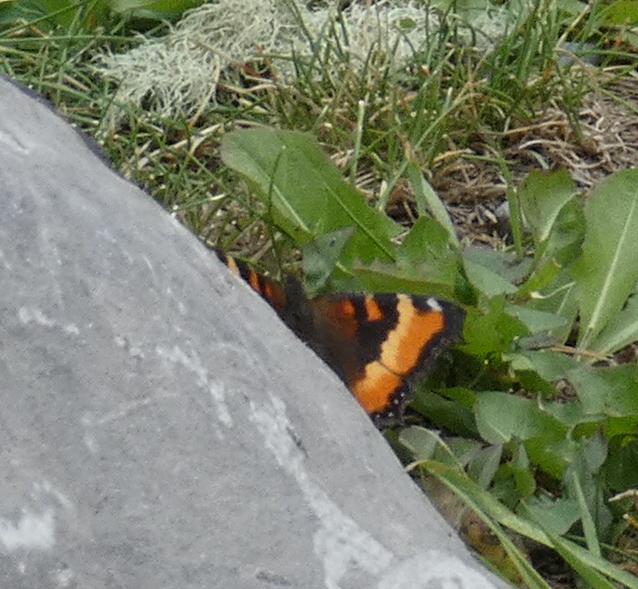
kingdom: Animalia
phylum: Arthropoda
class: Insecta
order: Lepidoptera
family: Nymphalidae
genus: Aglais
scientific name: Aglais milberti
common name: Milbert's tortoiseshell
